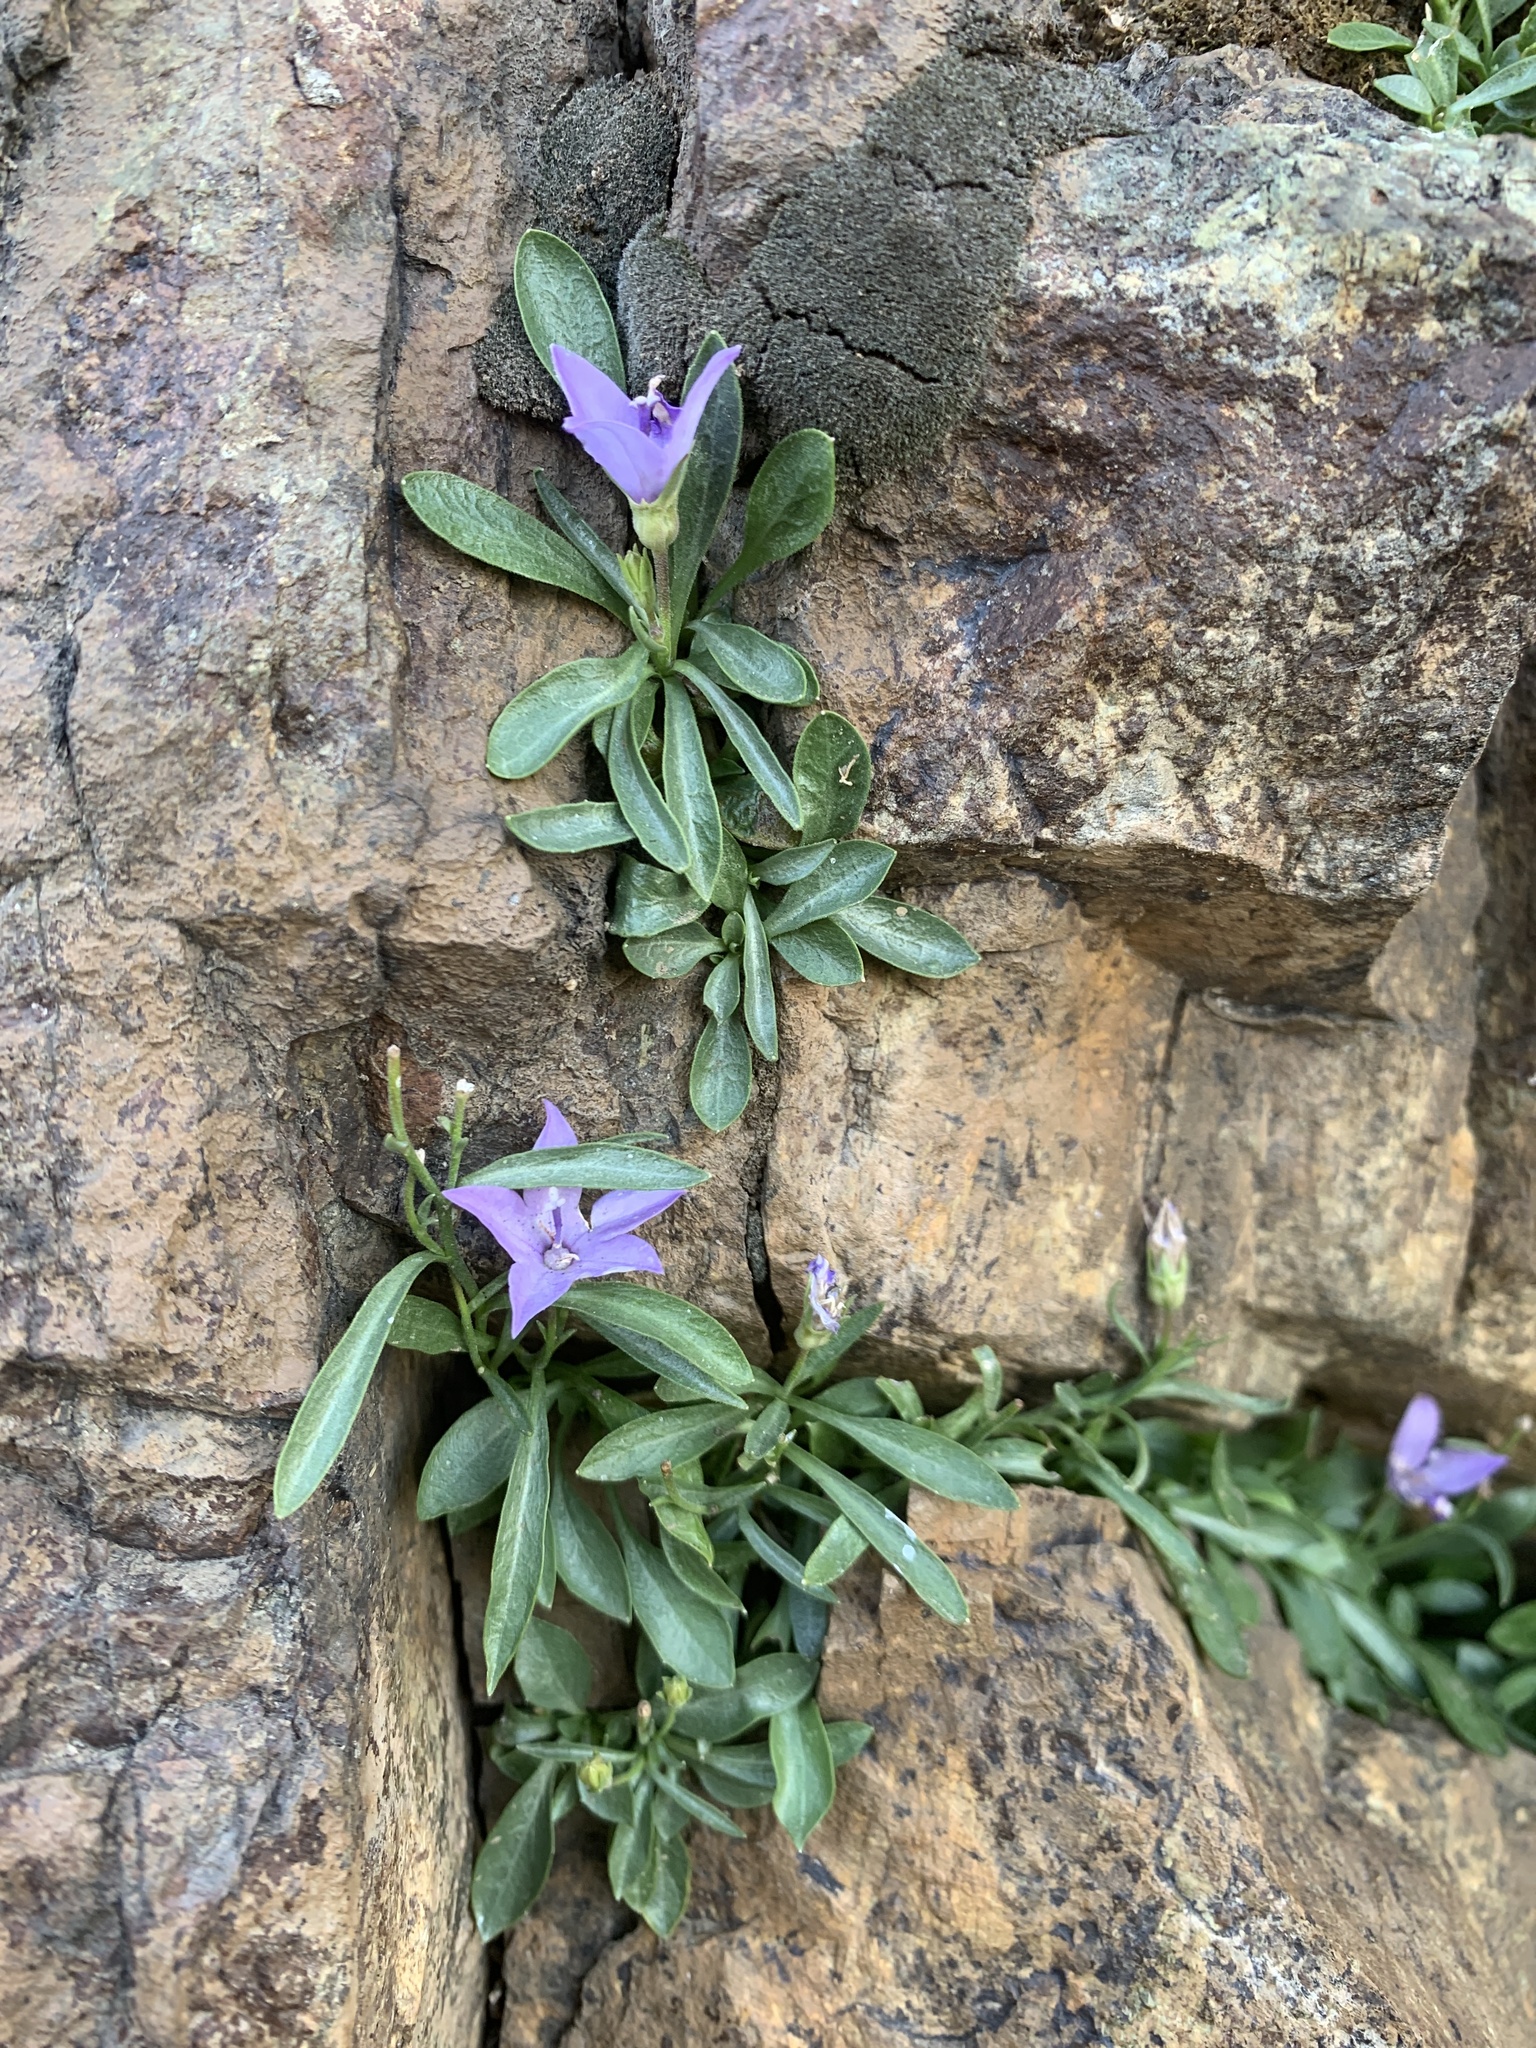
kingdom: Plantae
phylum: Tracheophyta
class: Magnoliopsida
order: Asterales
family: Campanulaceae
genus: Campanula
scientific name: Campanula scabrella
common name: Downy alpine bellflower
